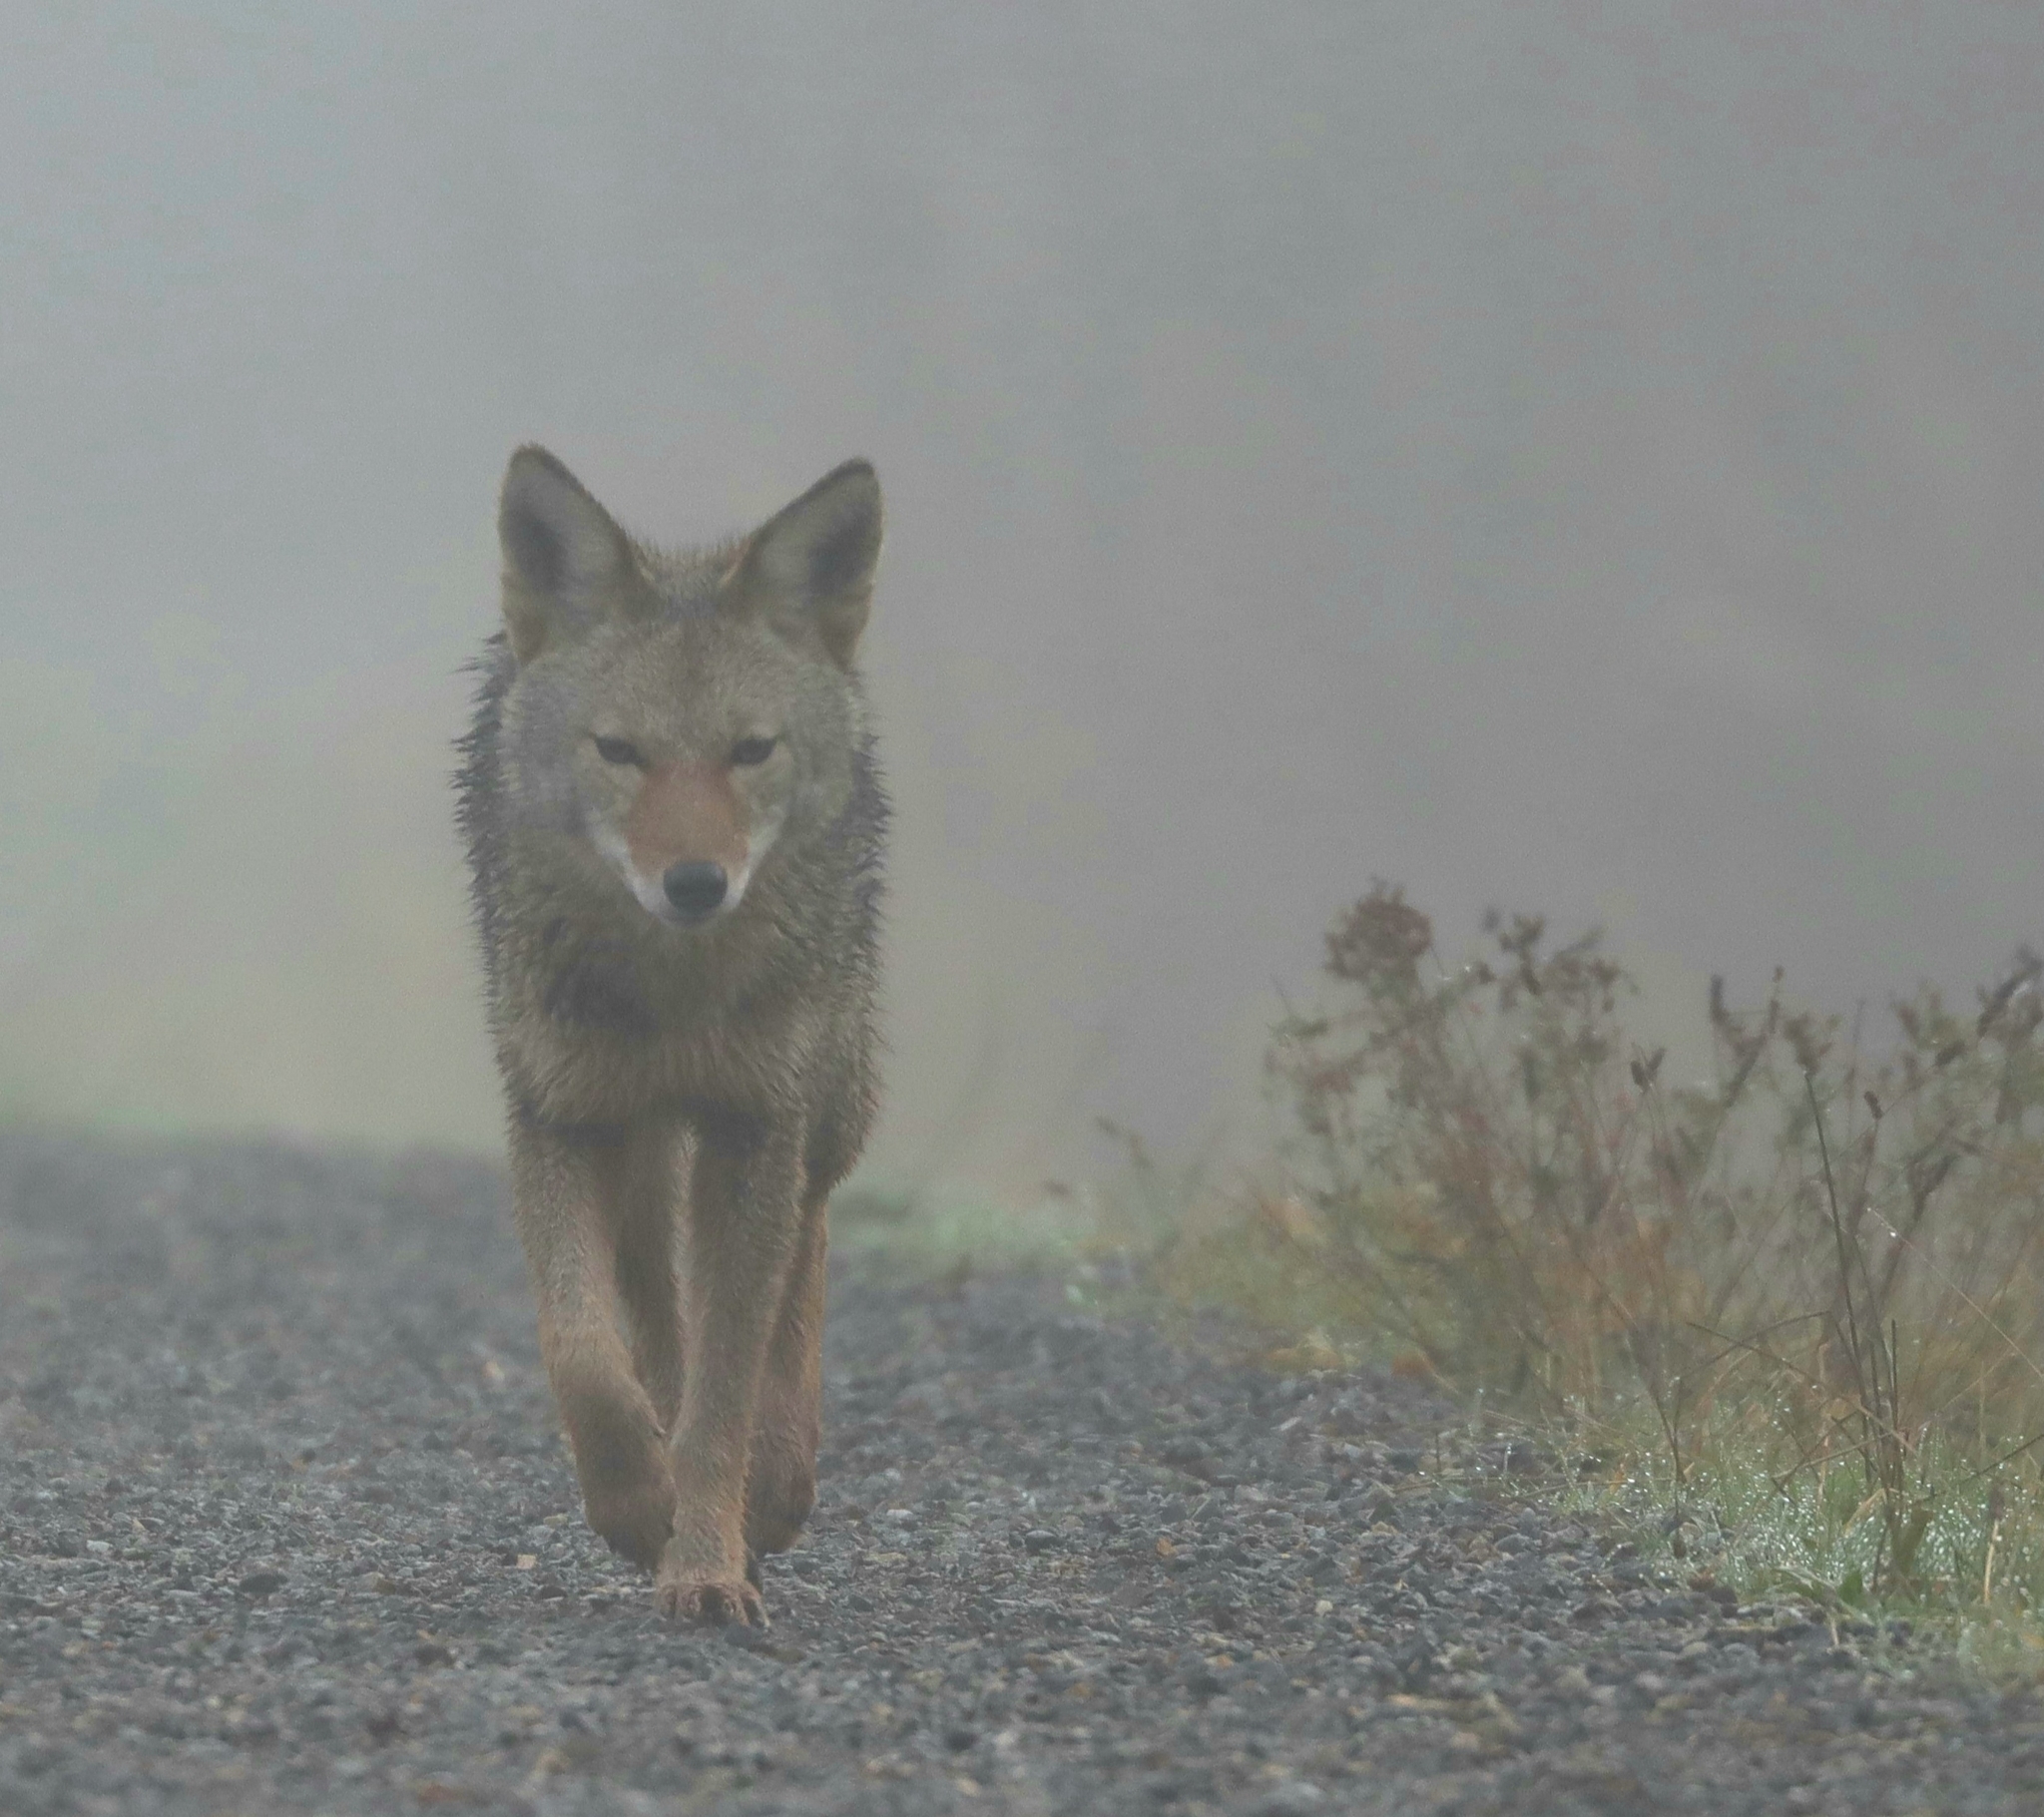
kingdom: Animalia
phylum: Chordata
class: Mammalia
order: Carnivora
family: Canidae
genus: Canis
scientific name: Canis latrans
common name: Coyote
